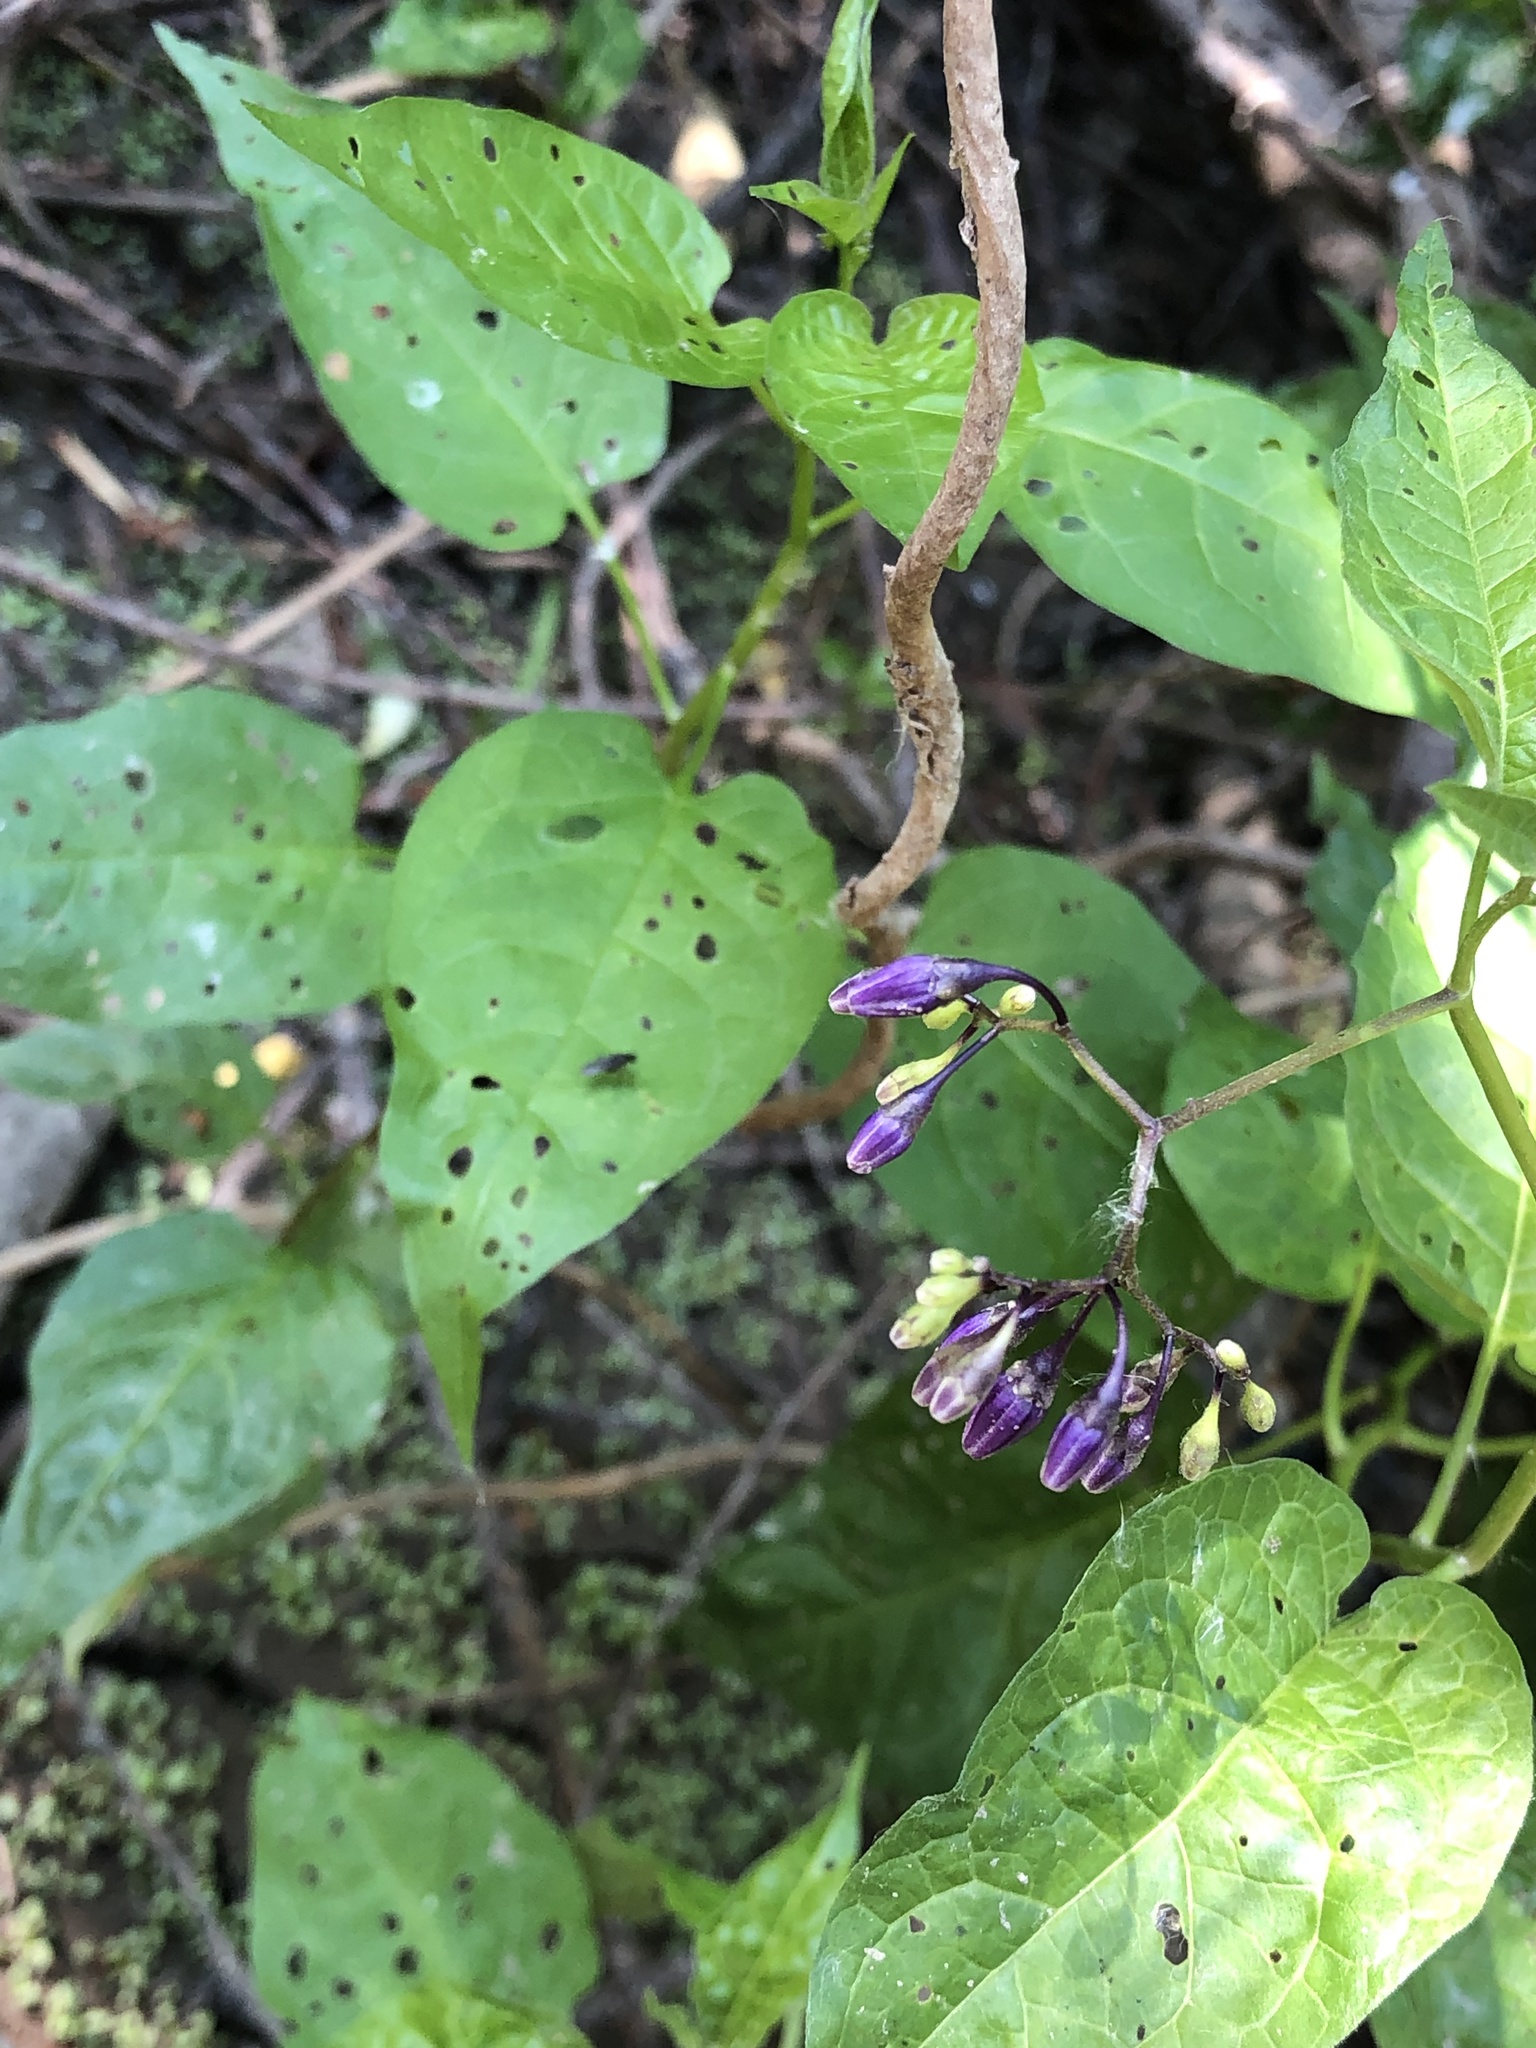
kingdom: Plantae
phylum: Tracheophyta
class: Magnoliopsida
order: Solanales
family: Solanaceae
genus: Solanum
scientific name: Solanum dulcamara
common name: Climbing nightshade
